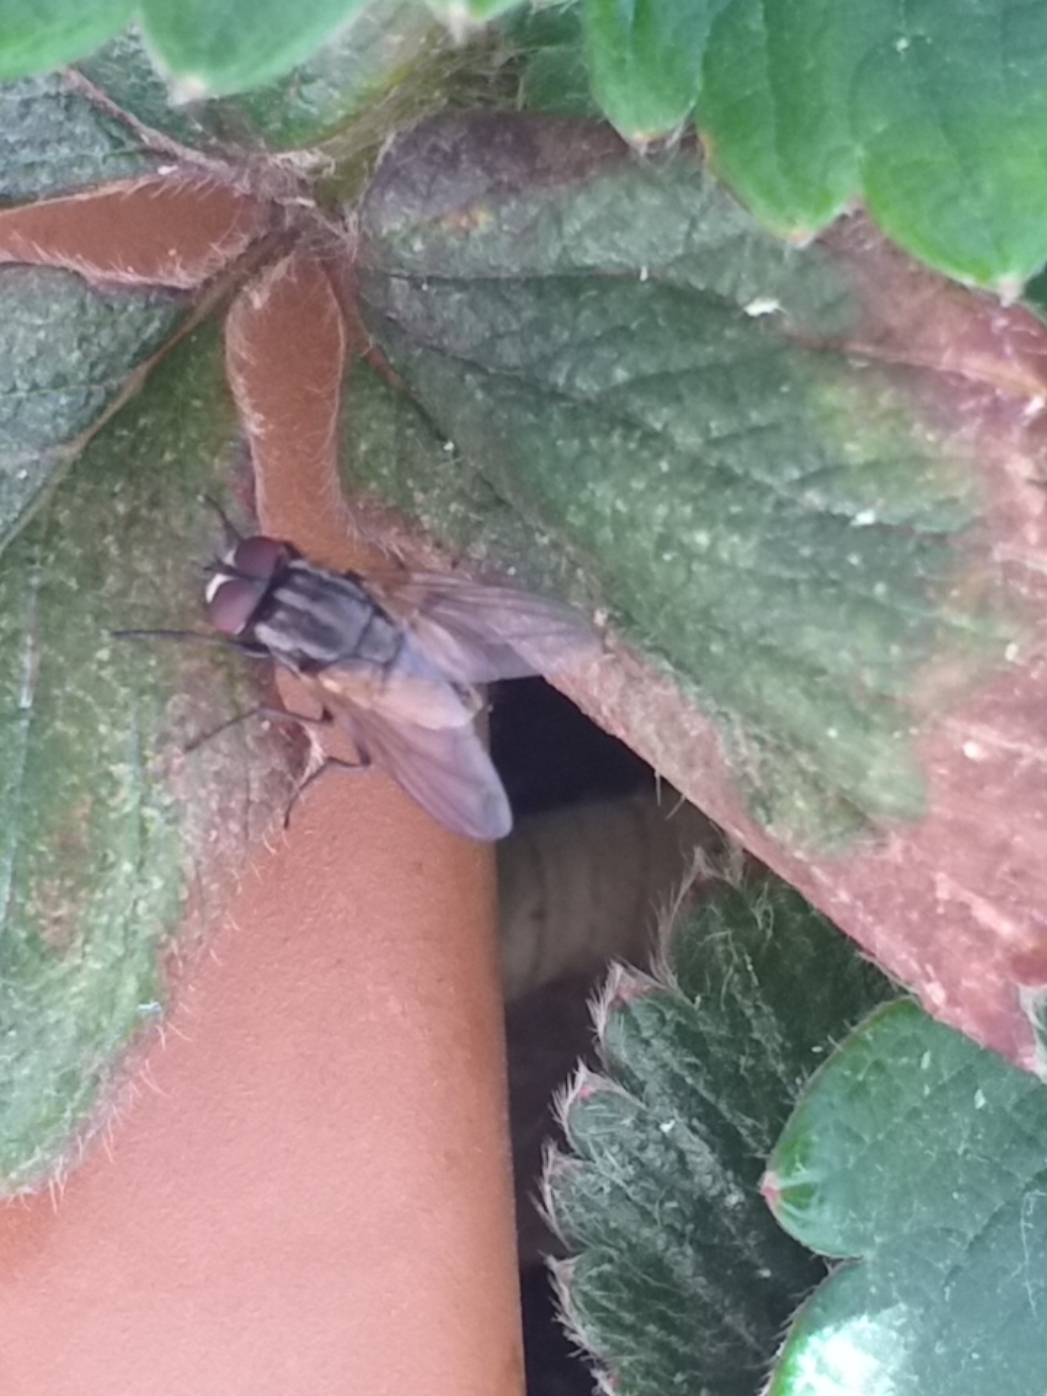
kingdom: Animalia
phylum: Arthropoda
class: Insecta
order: Diptera
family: Muscidae
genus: Musca
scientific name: Musca domestica
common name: House fly
